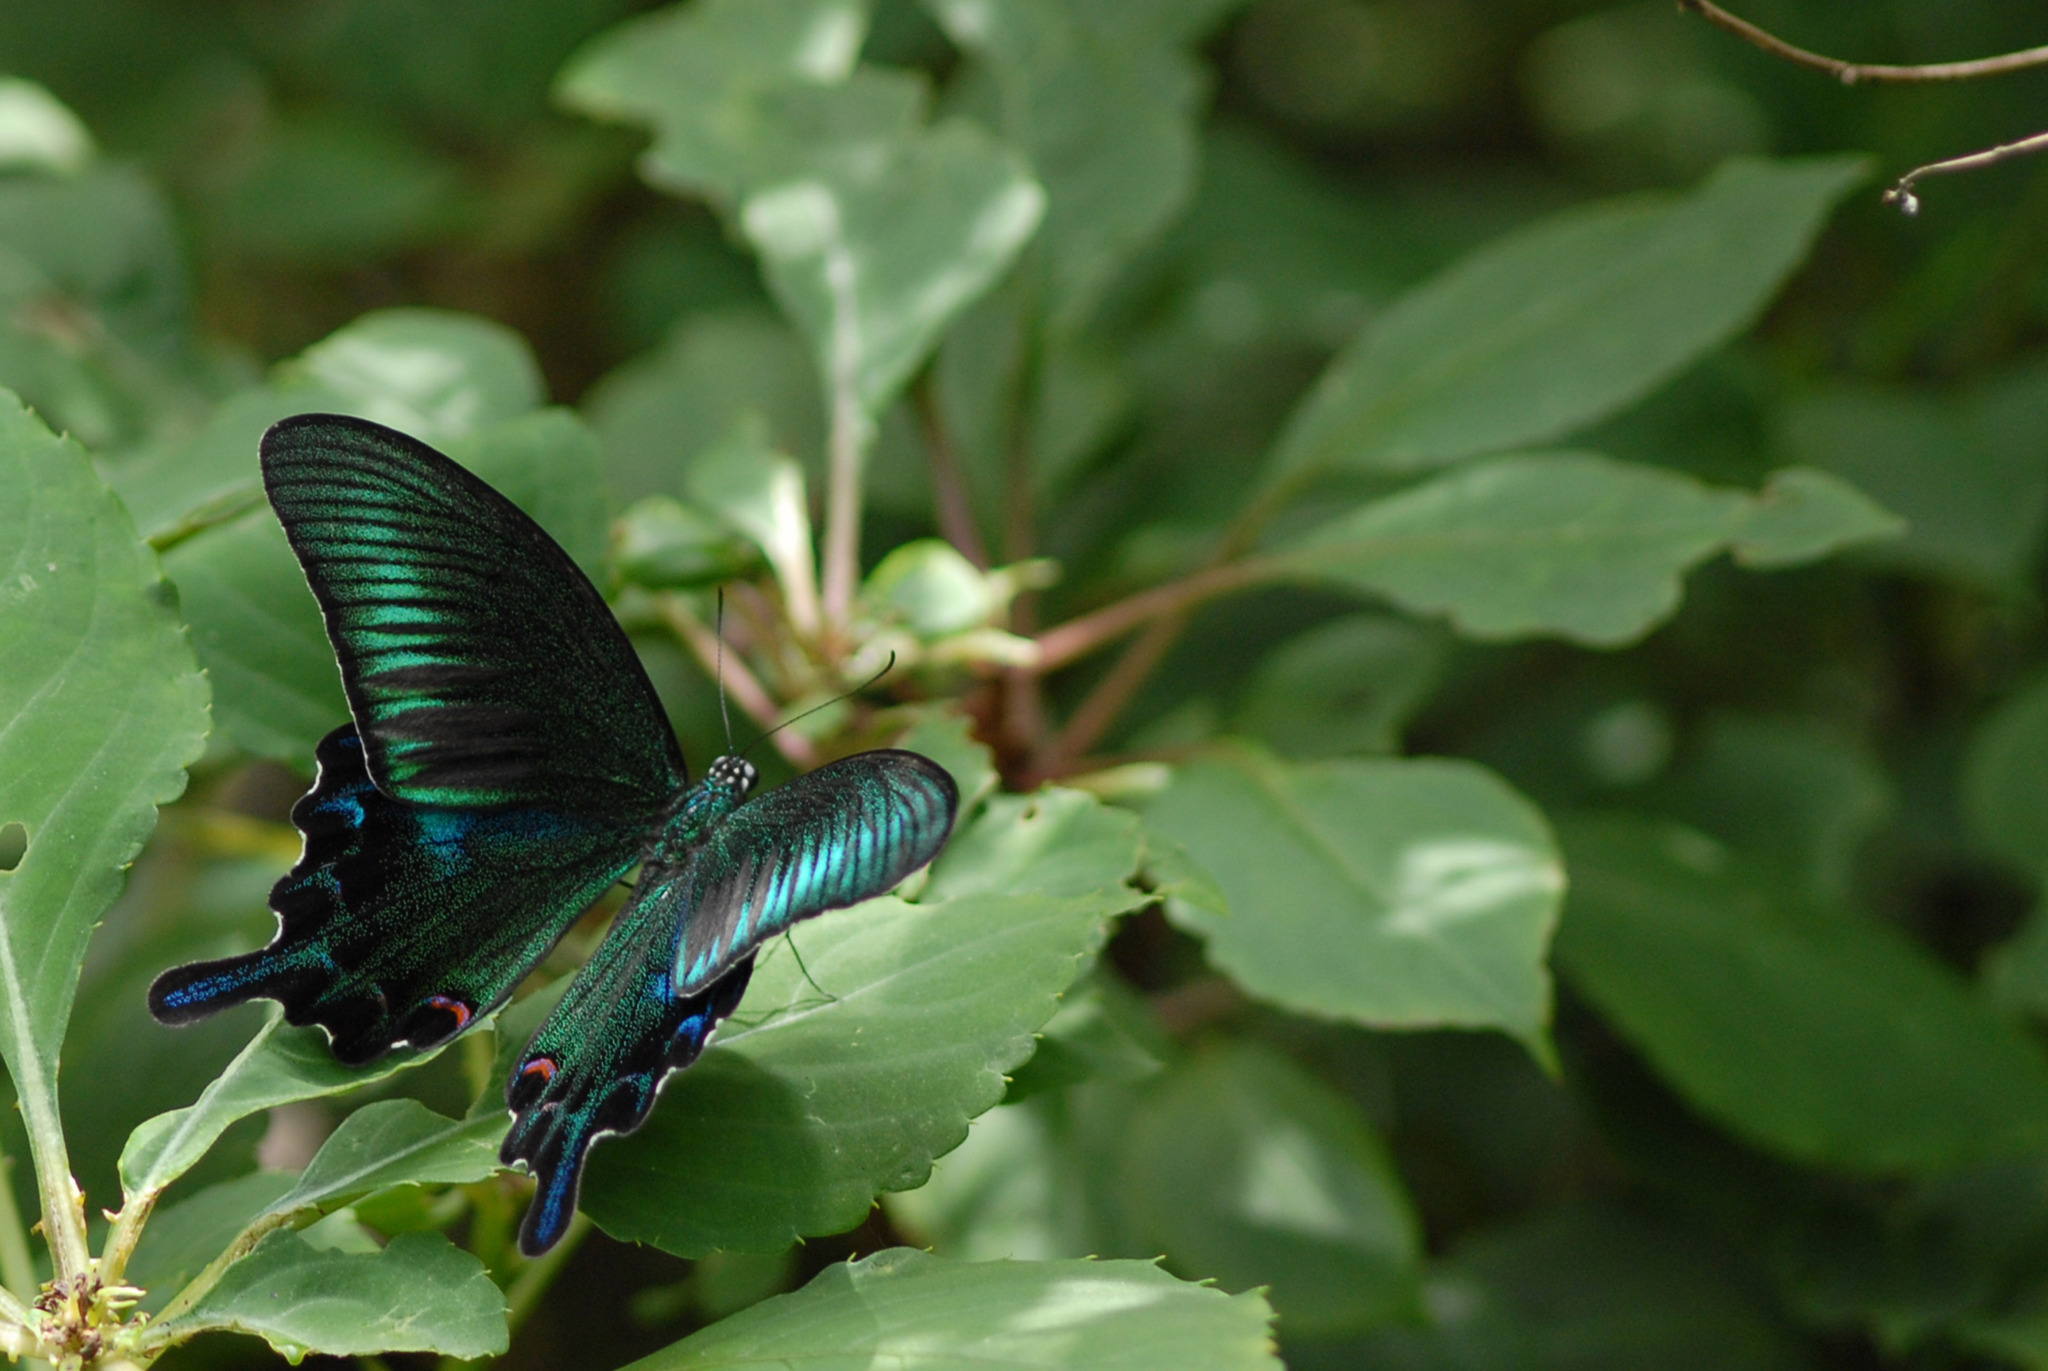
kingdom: Animalia
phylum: Arthropoda
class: Insecta
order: Lepidoptera
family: Papilionidae
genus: Papilio
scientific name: Papilio bianor
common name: Common peacock
